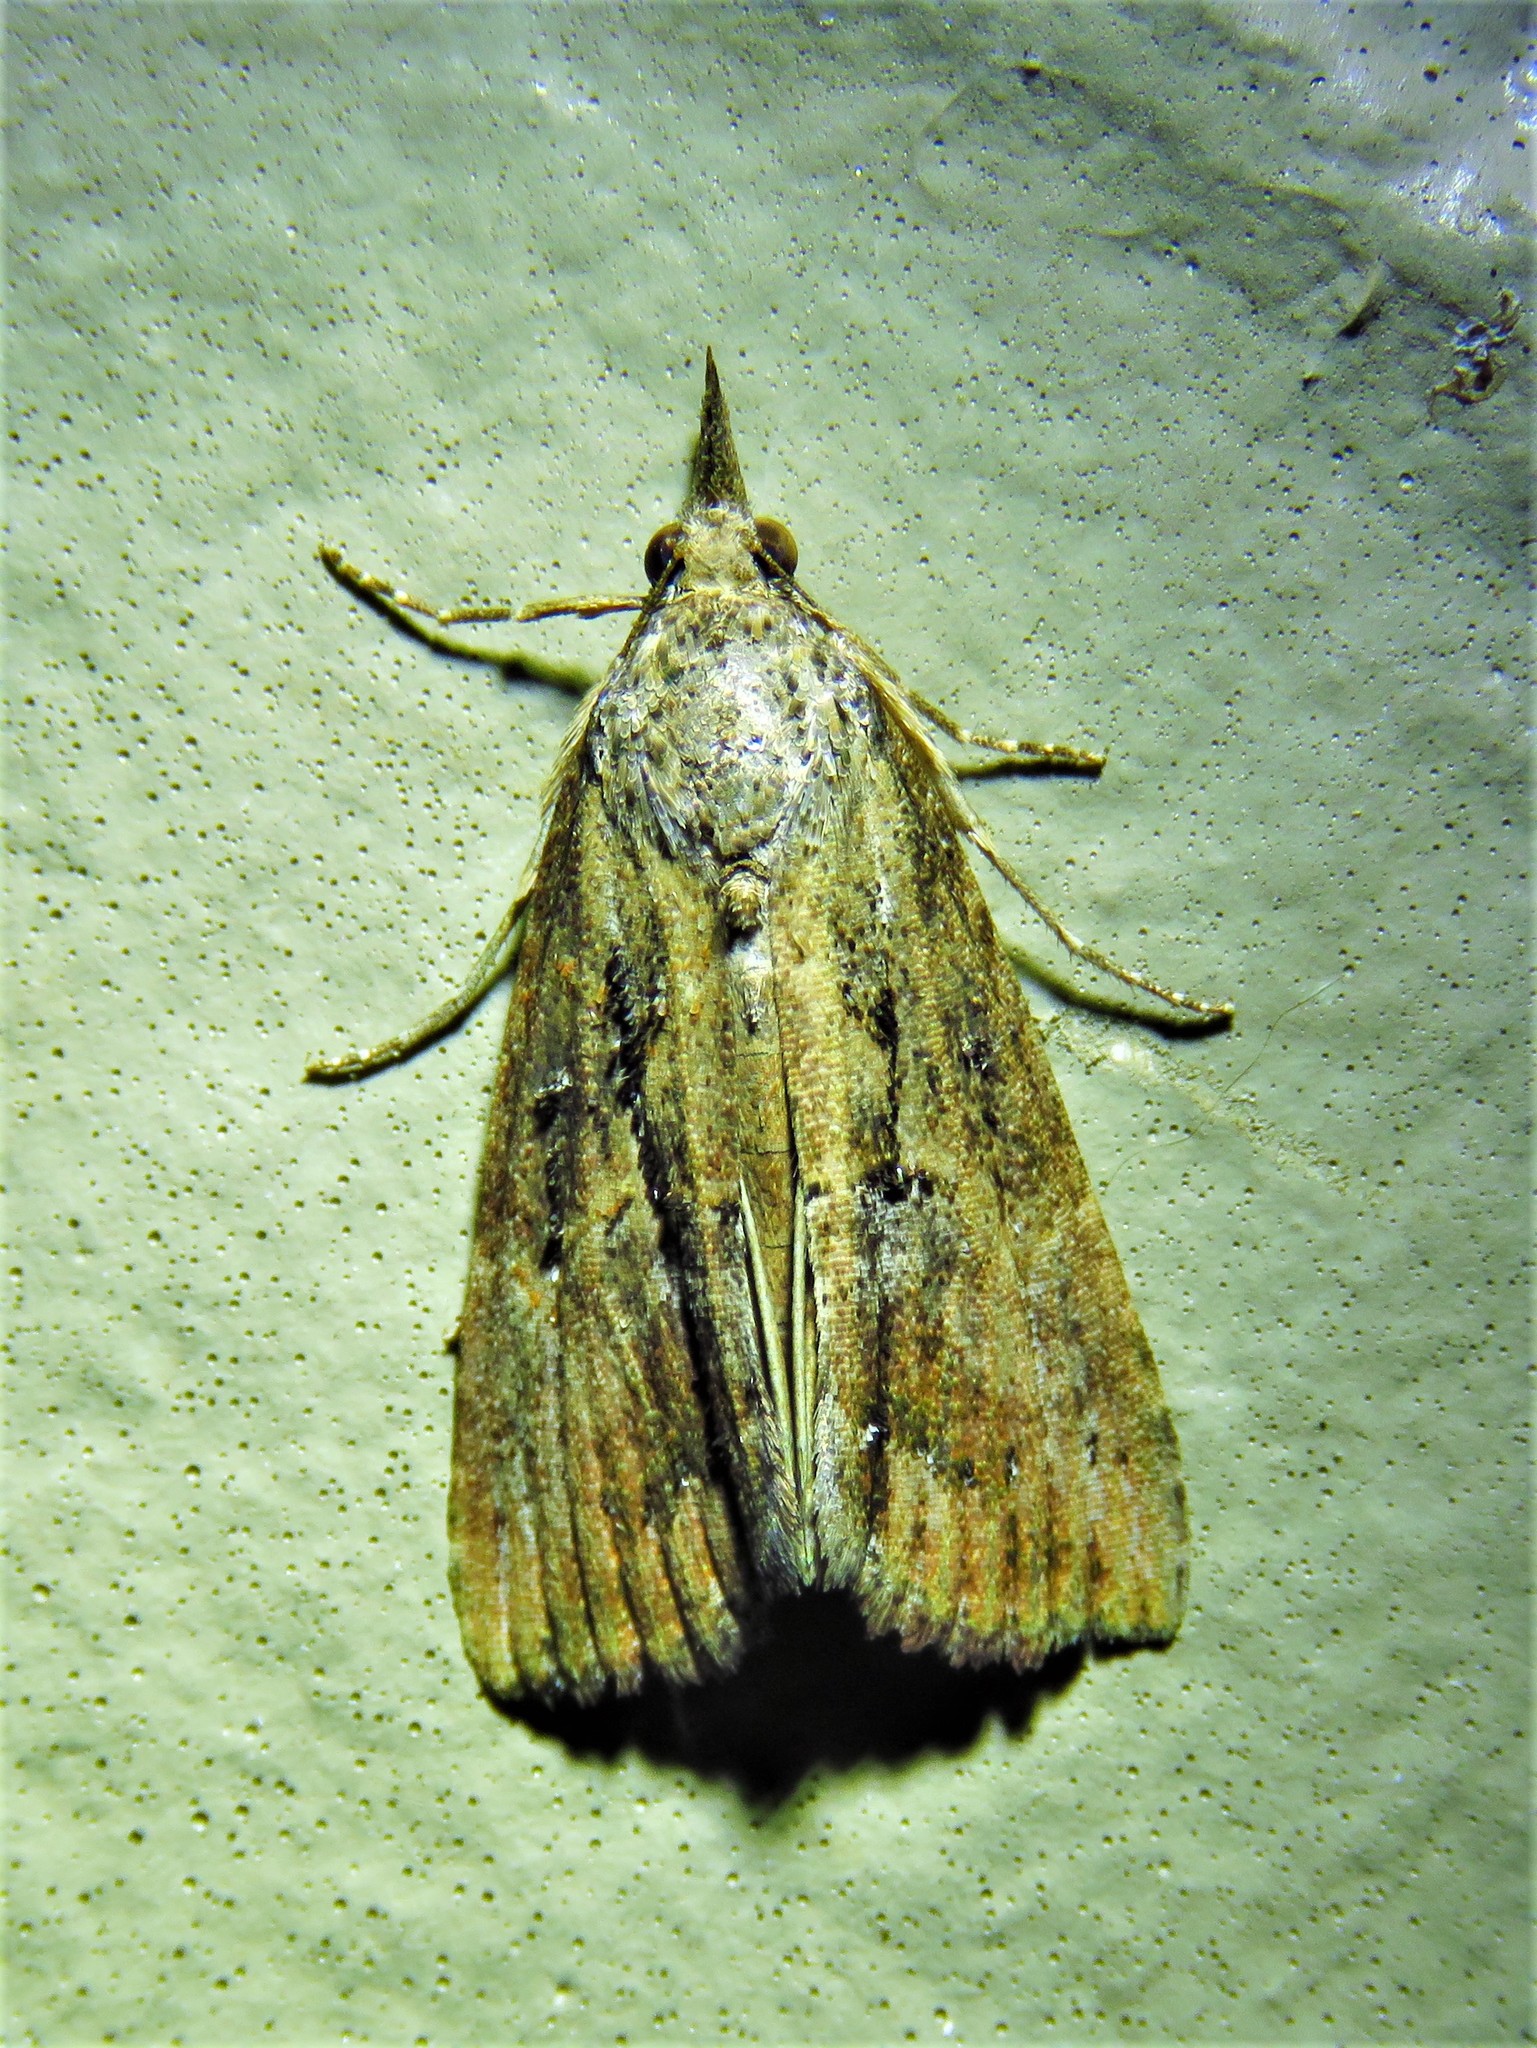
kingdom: Animalia
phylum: Arthropoda
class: Insecta
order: Lepidoptera
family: Erebidae
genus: Hypena
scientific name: Hypena scabra
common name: Green cloverworm
